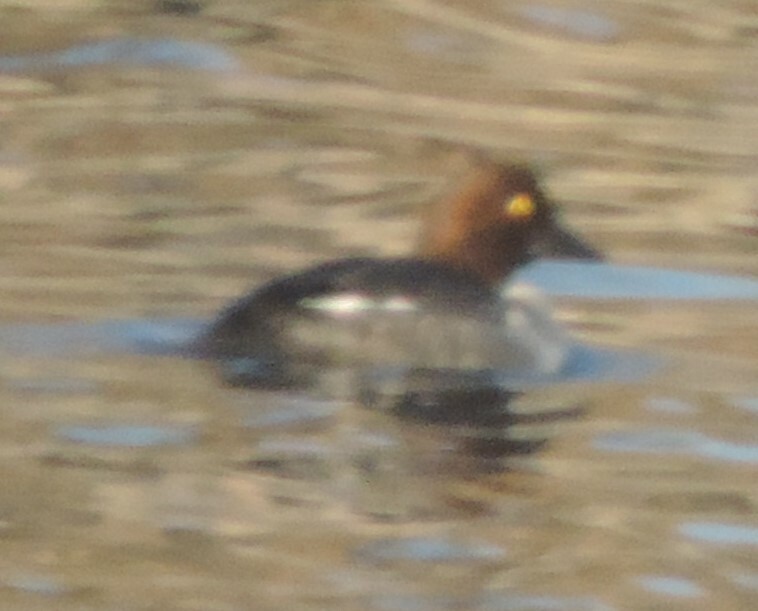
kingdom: Animalia
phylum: Chordata
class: Aves
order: Anseriformes
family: Anatidae
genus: Bucephala
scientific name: Bucephala clangula
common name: Common goldeneye
